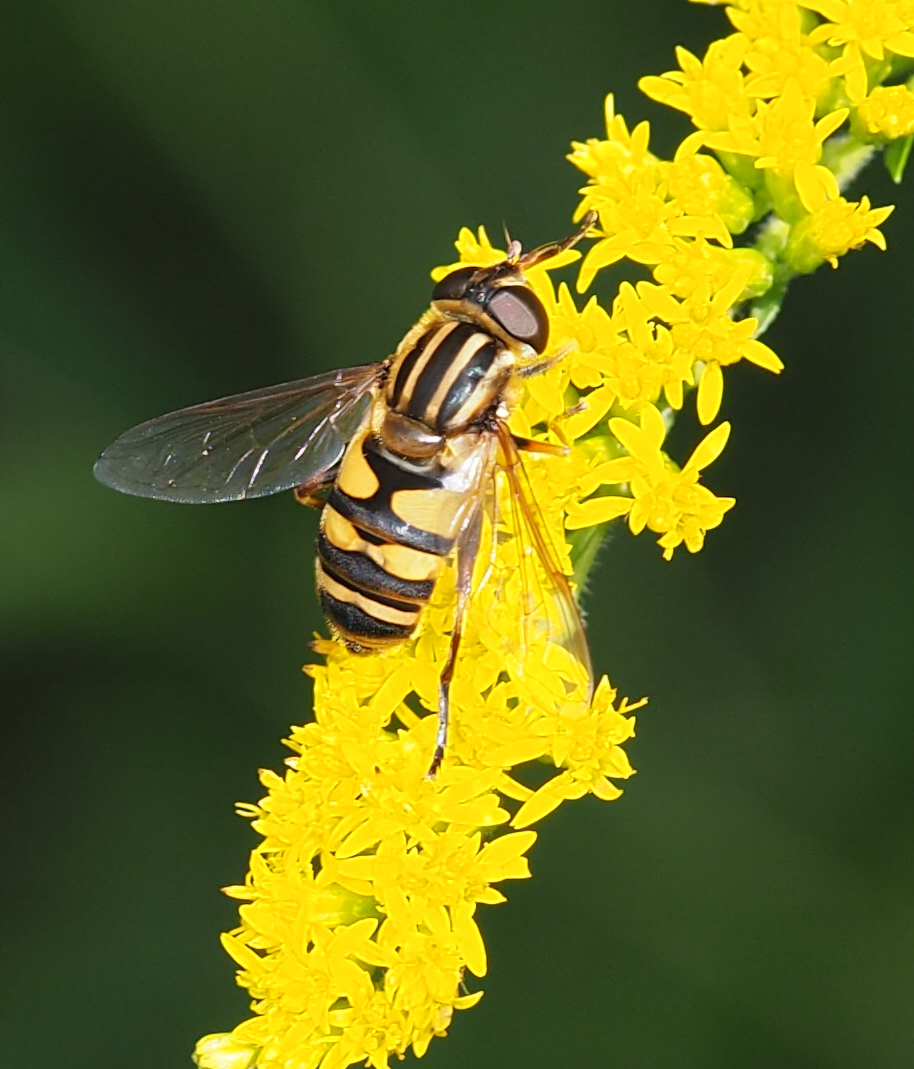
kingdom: Animalia
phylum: Arthropoda
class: Insecta
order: Diptera
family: Syrphidae
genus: Helophilus
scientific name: Helophilus fasciatus
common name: Narrow-headed marsh fly
